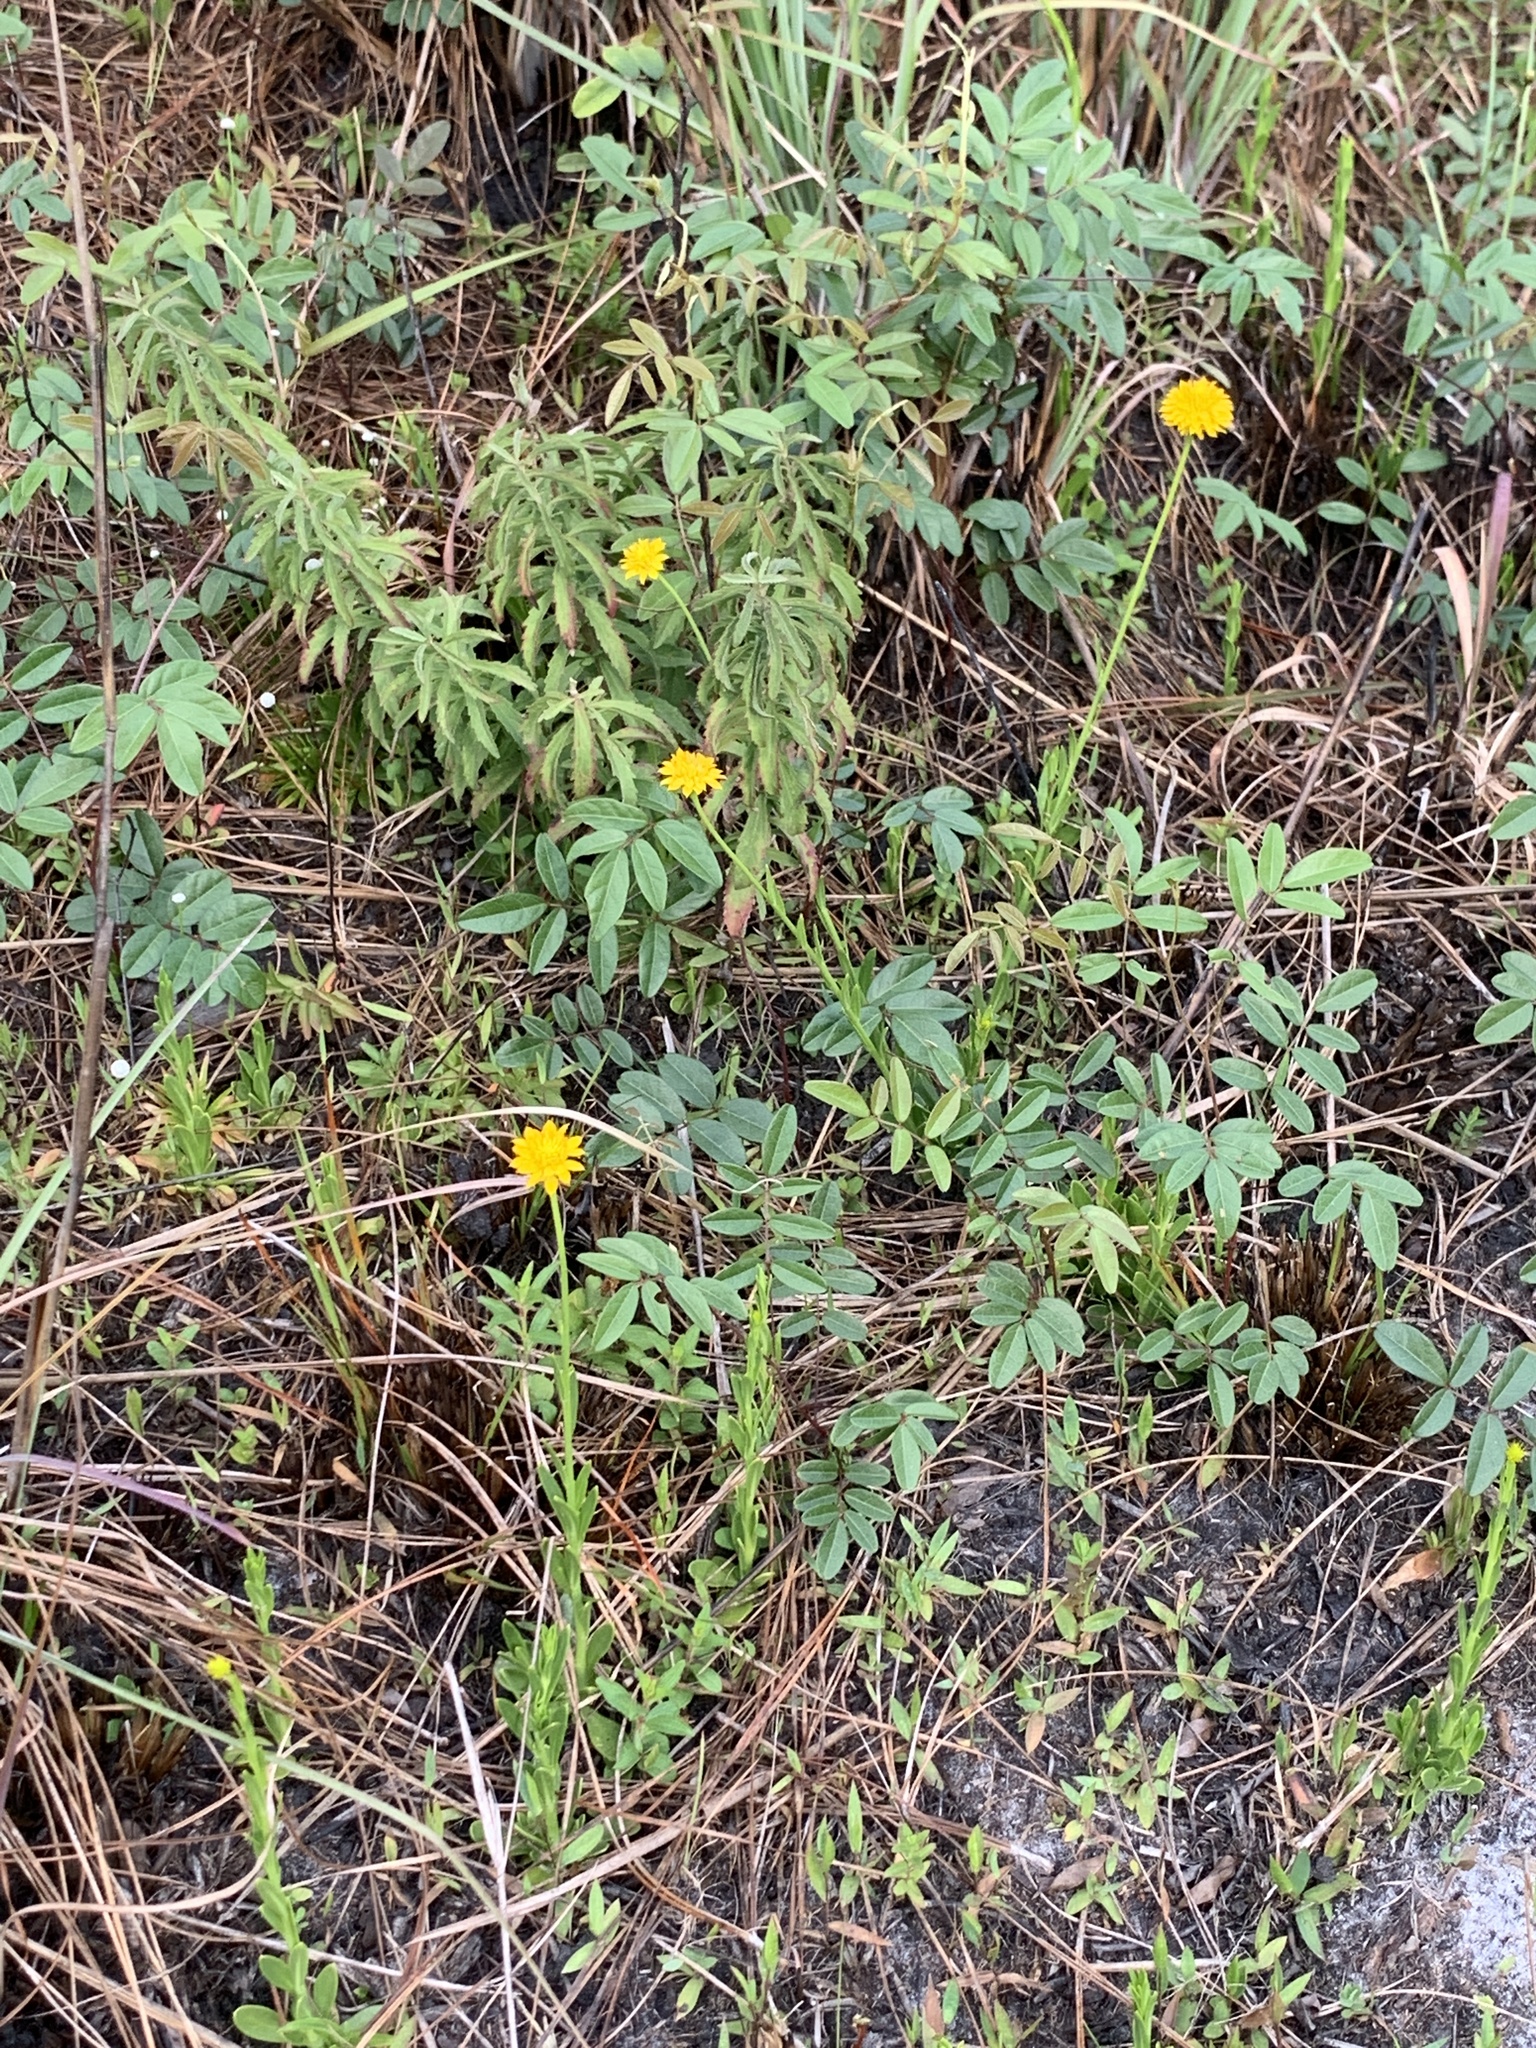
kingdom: Plantae
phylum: Tracheophyta
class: Magnoliopsida
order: Fabales
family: Polygalaceae
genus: Polygala
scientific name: Polygala rugelii
